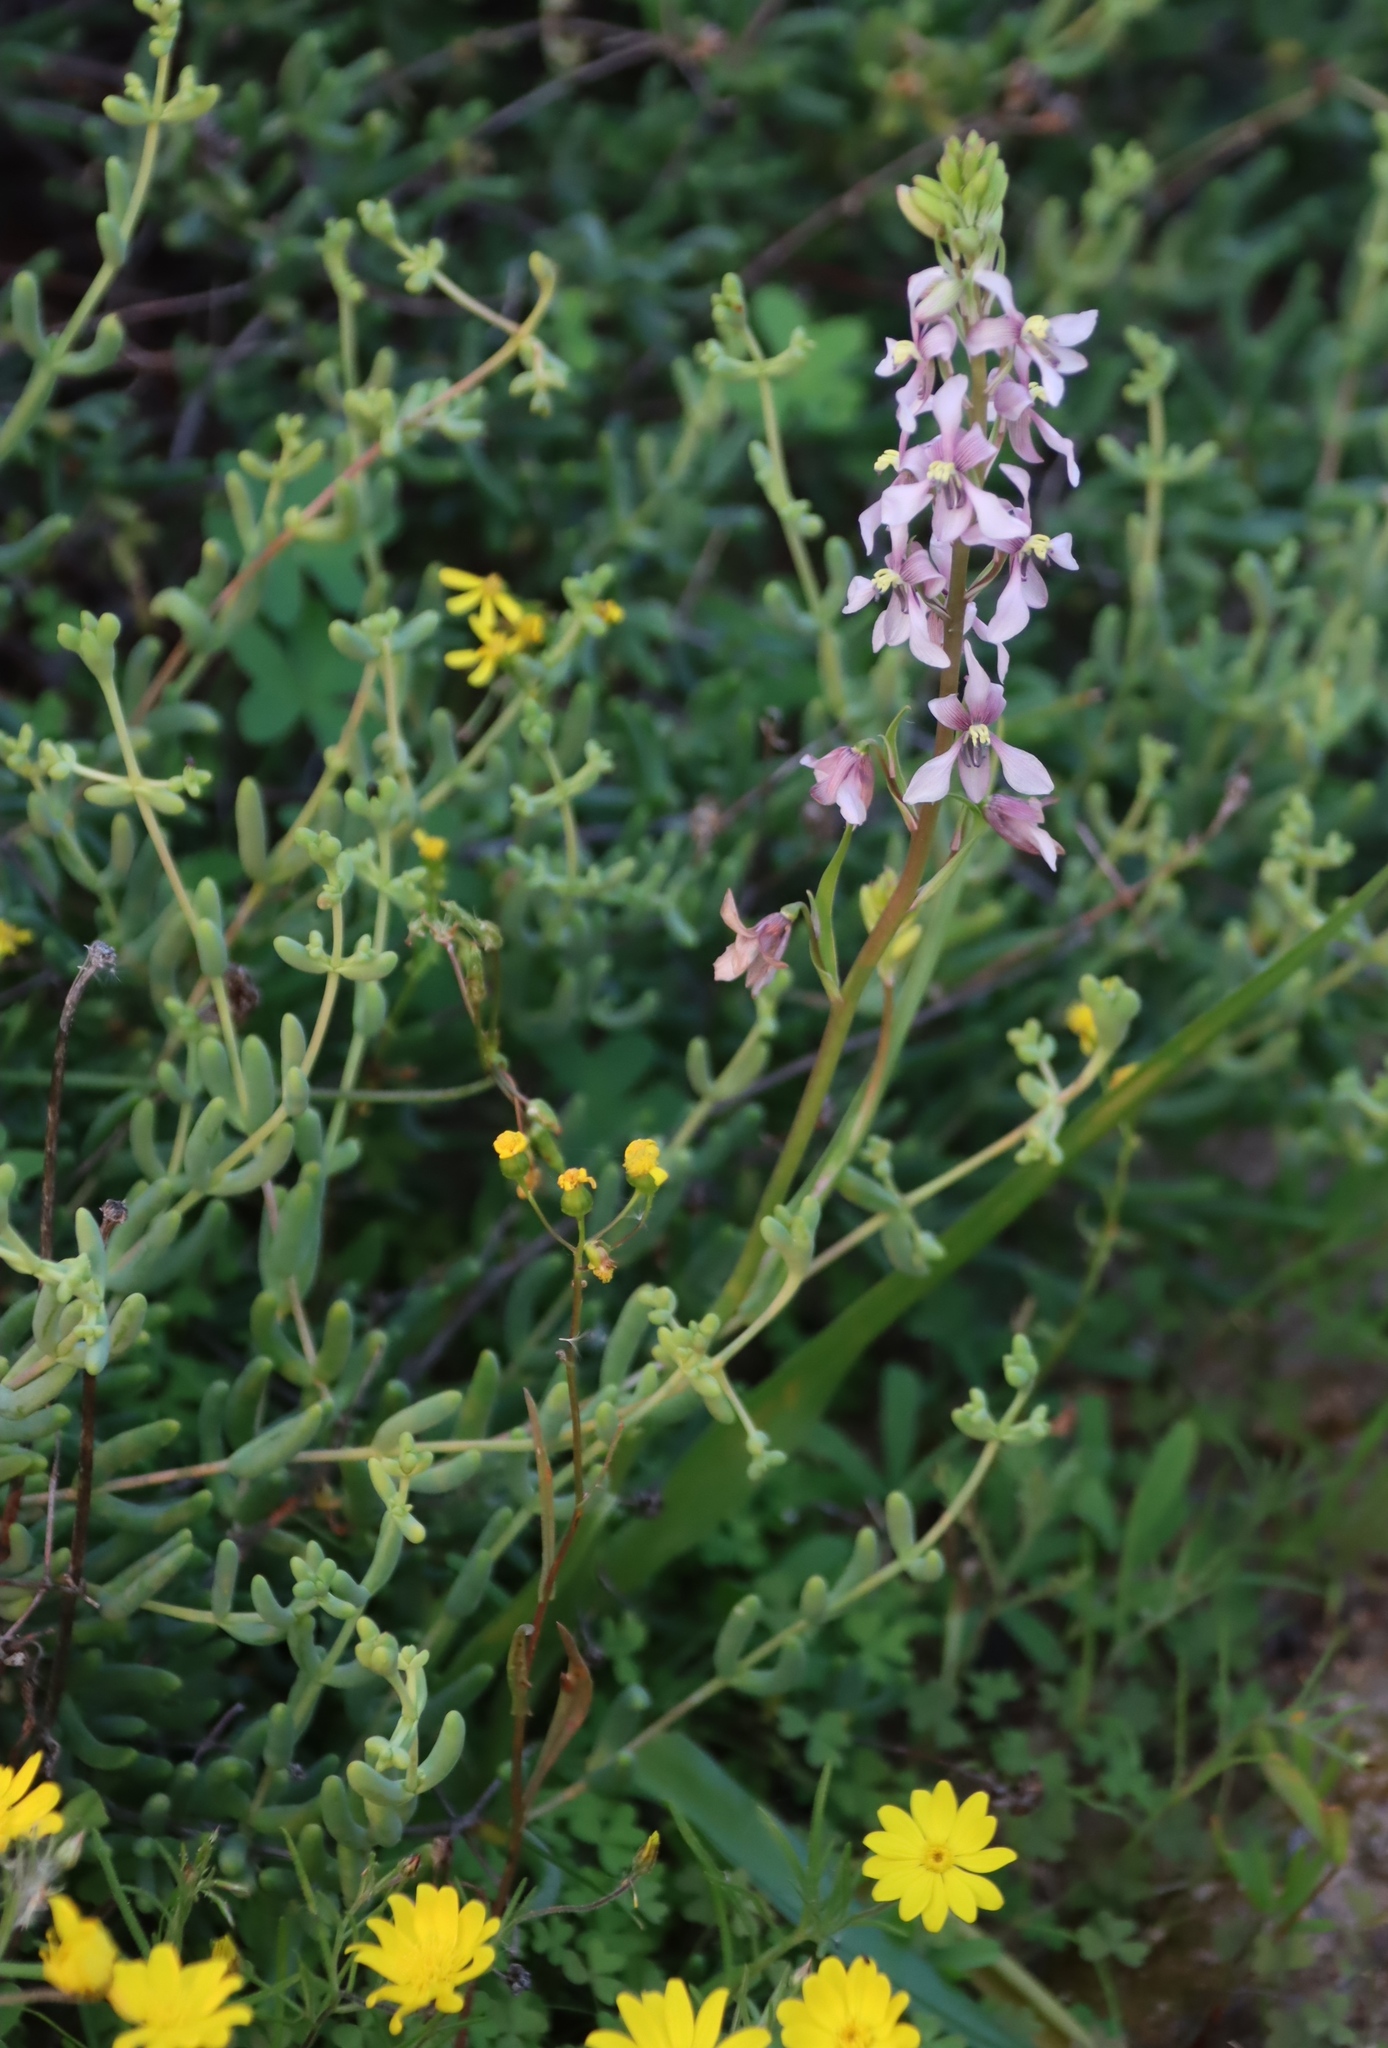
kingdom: Plantae
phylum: Tracheophyta
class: Liliopsida
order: Asparagales
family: Tecophilaeaceae
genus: Cyanella
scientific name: Cyanella orchidiformis
